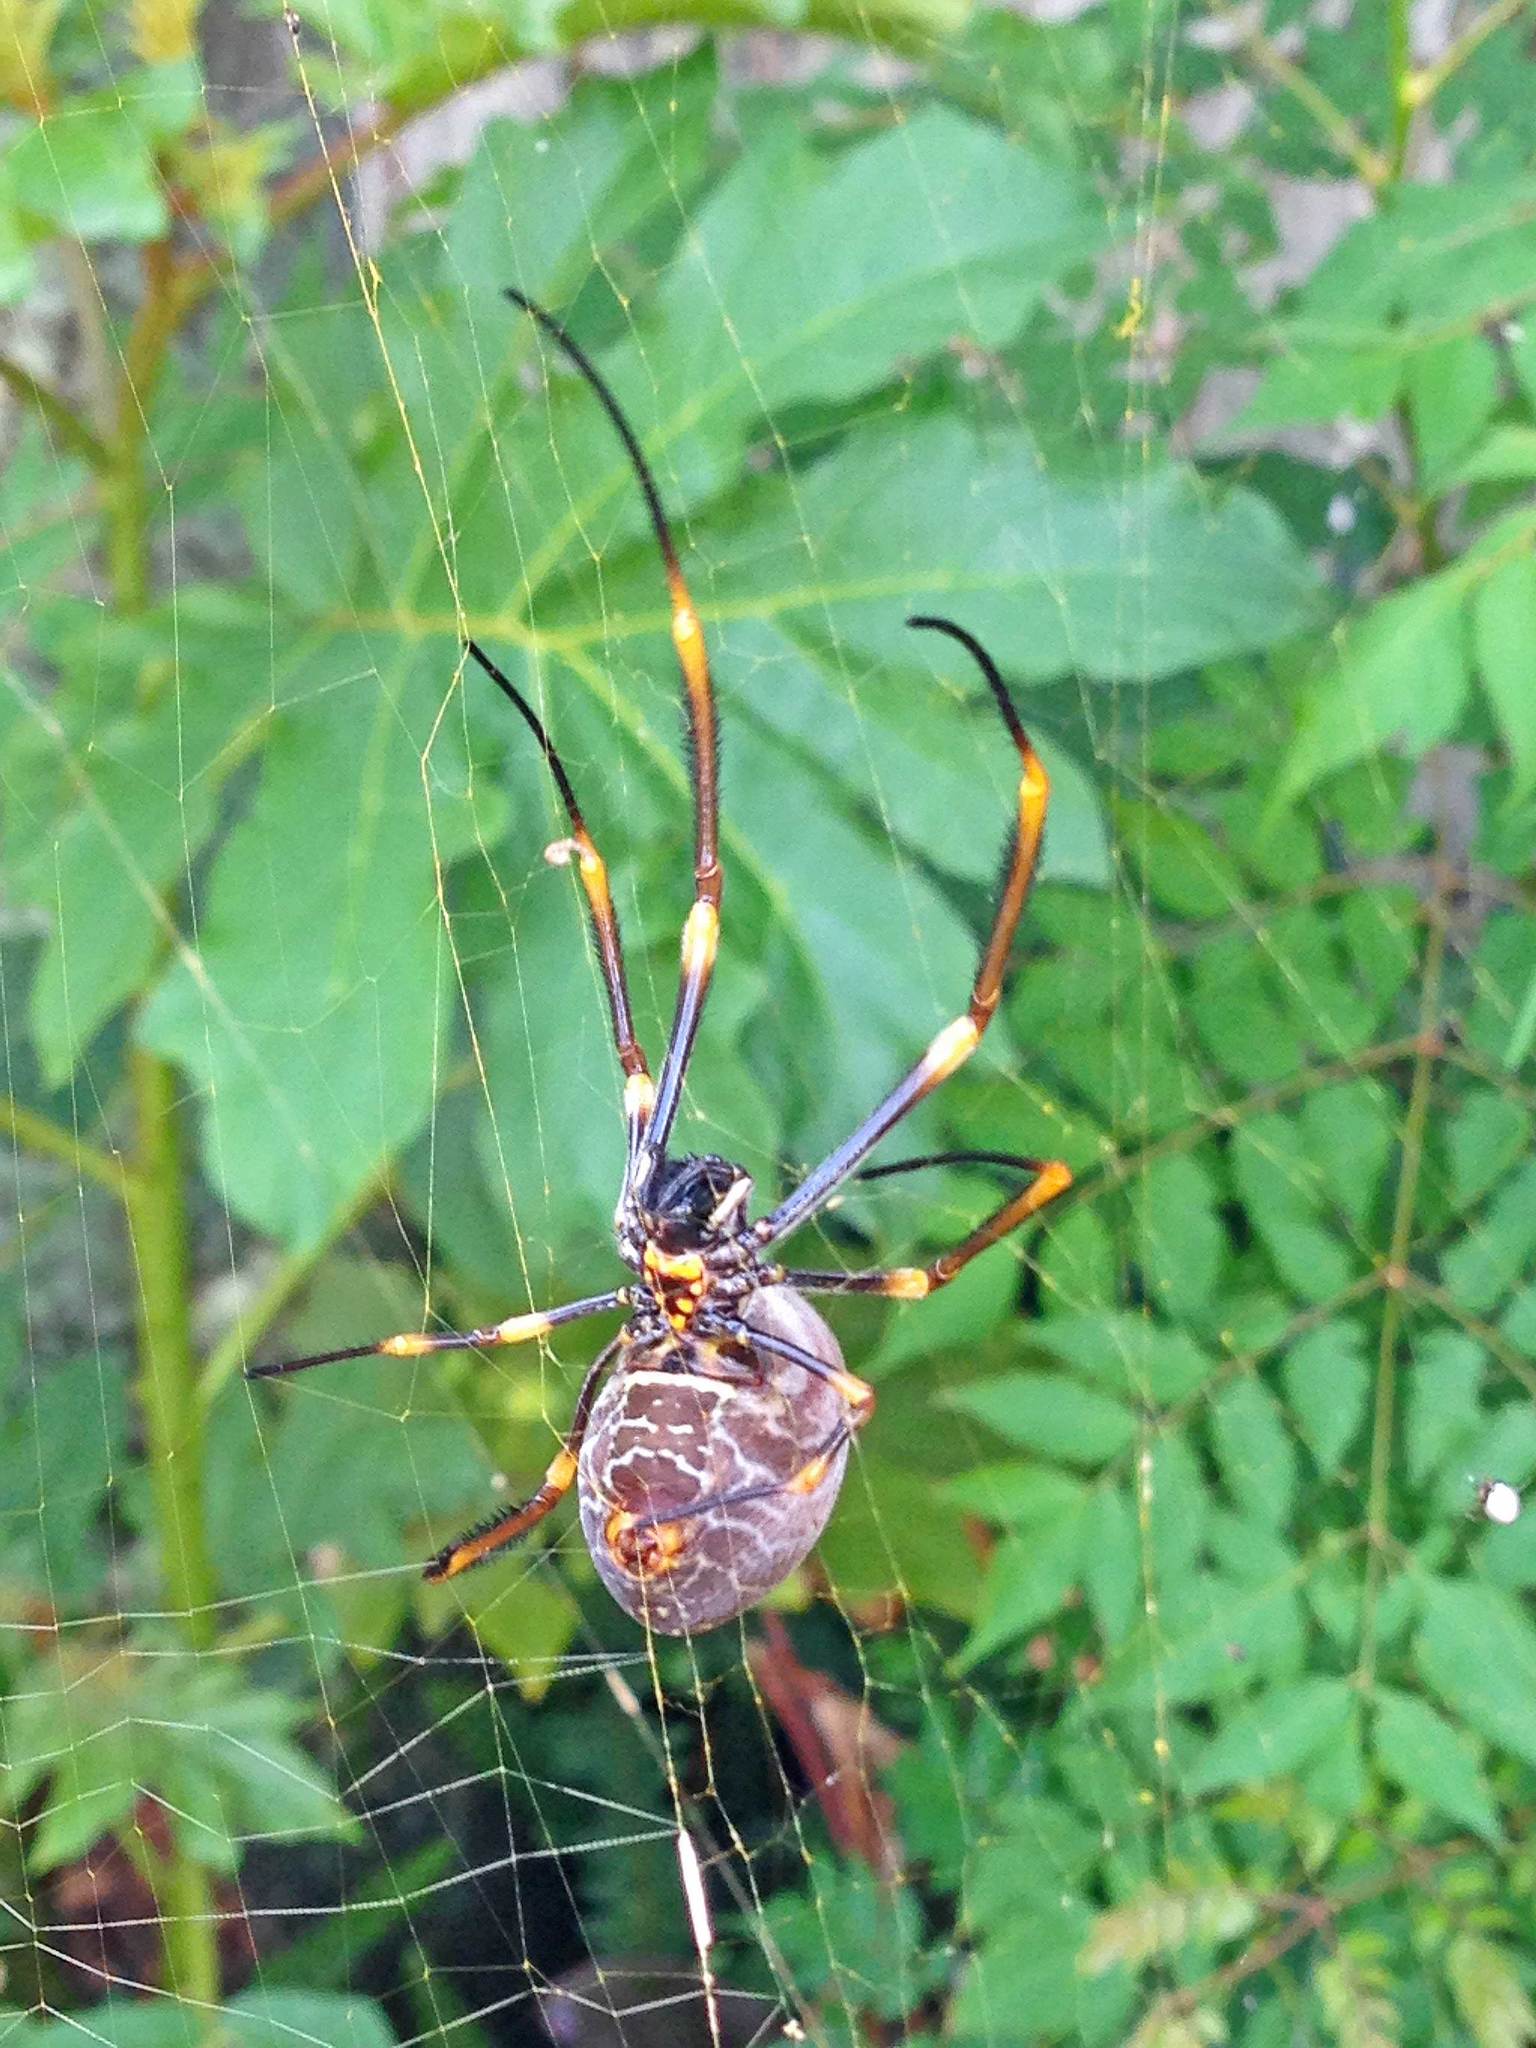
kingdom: Animalia
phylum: Arthropoda
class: Arachnida
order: Araneae
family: Araneidae
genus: Trichonephila
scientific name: Trichonephila plumipes
